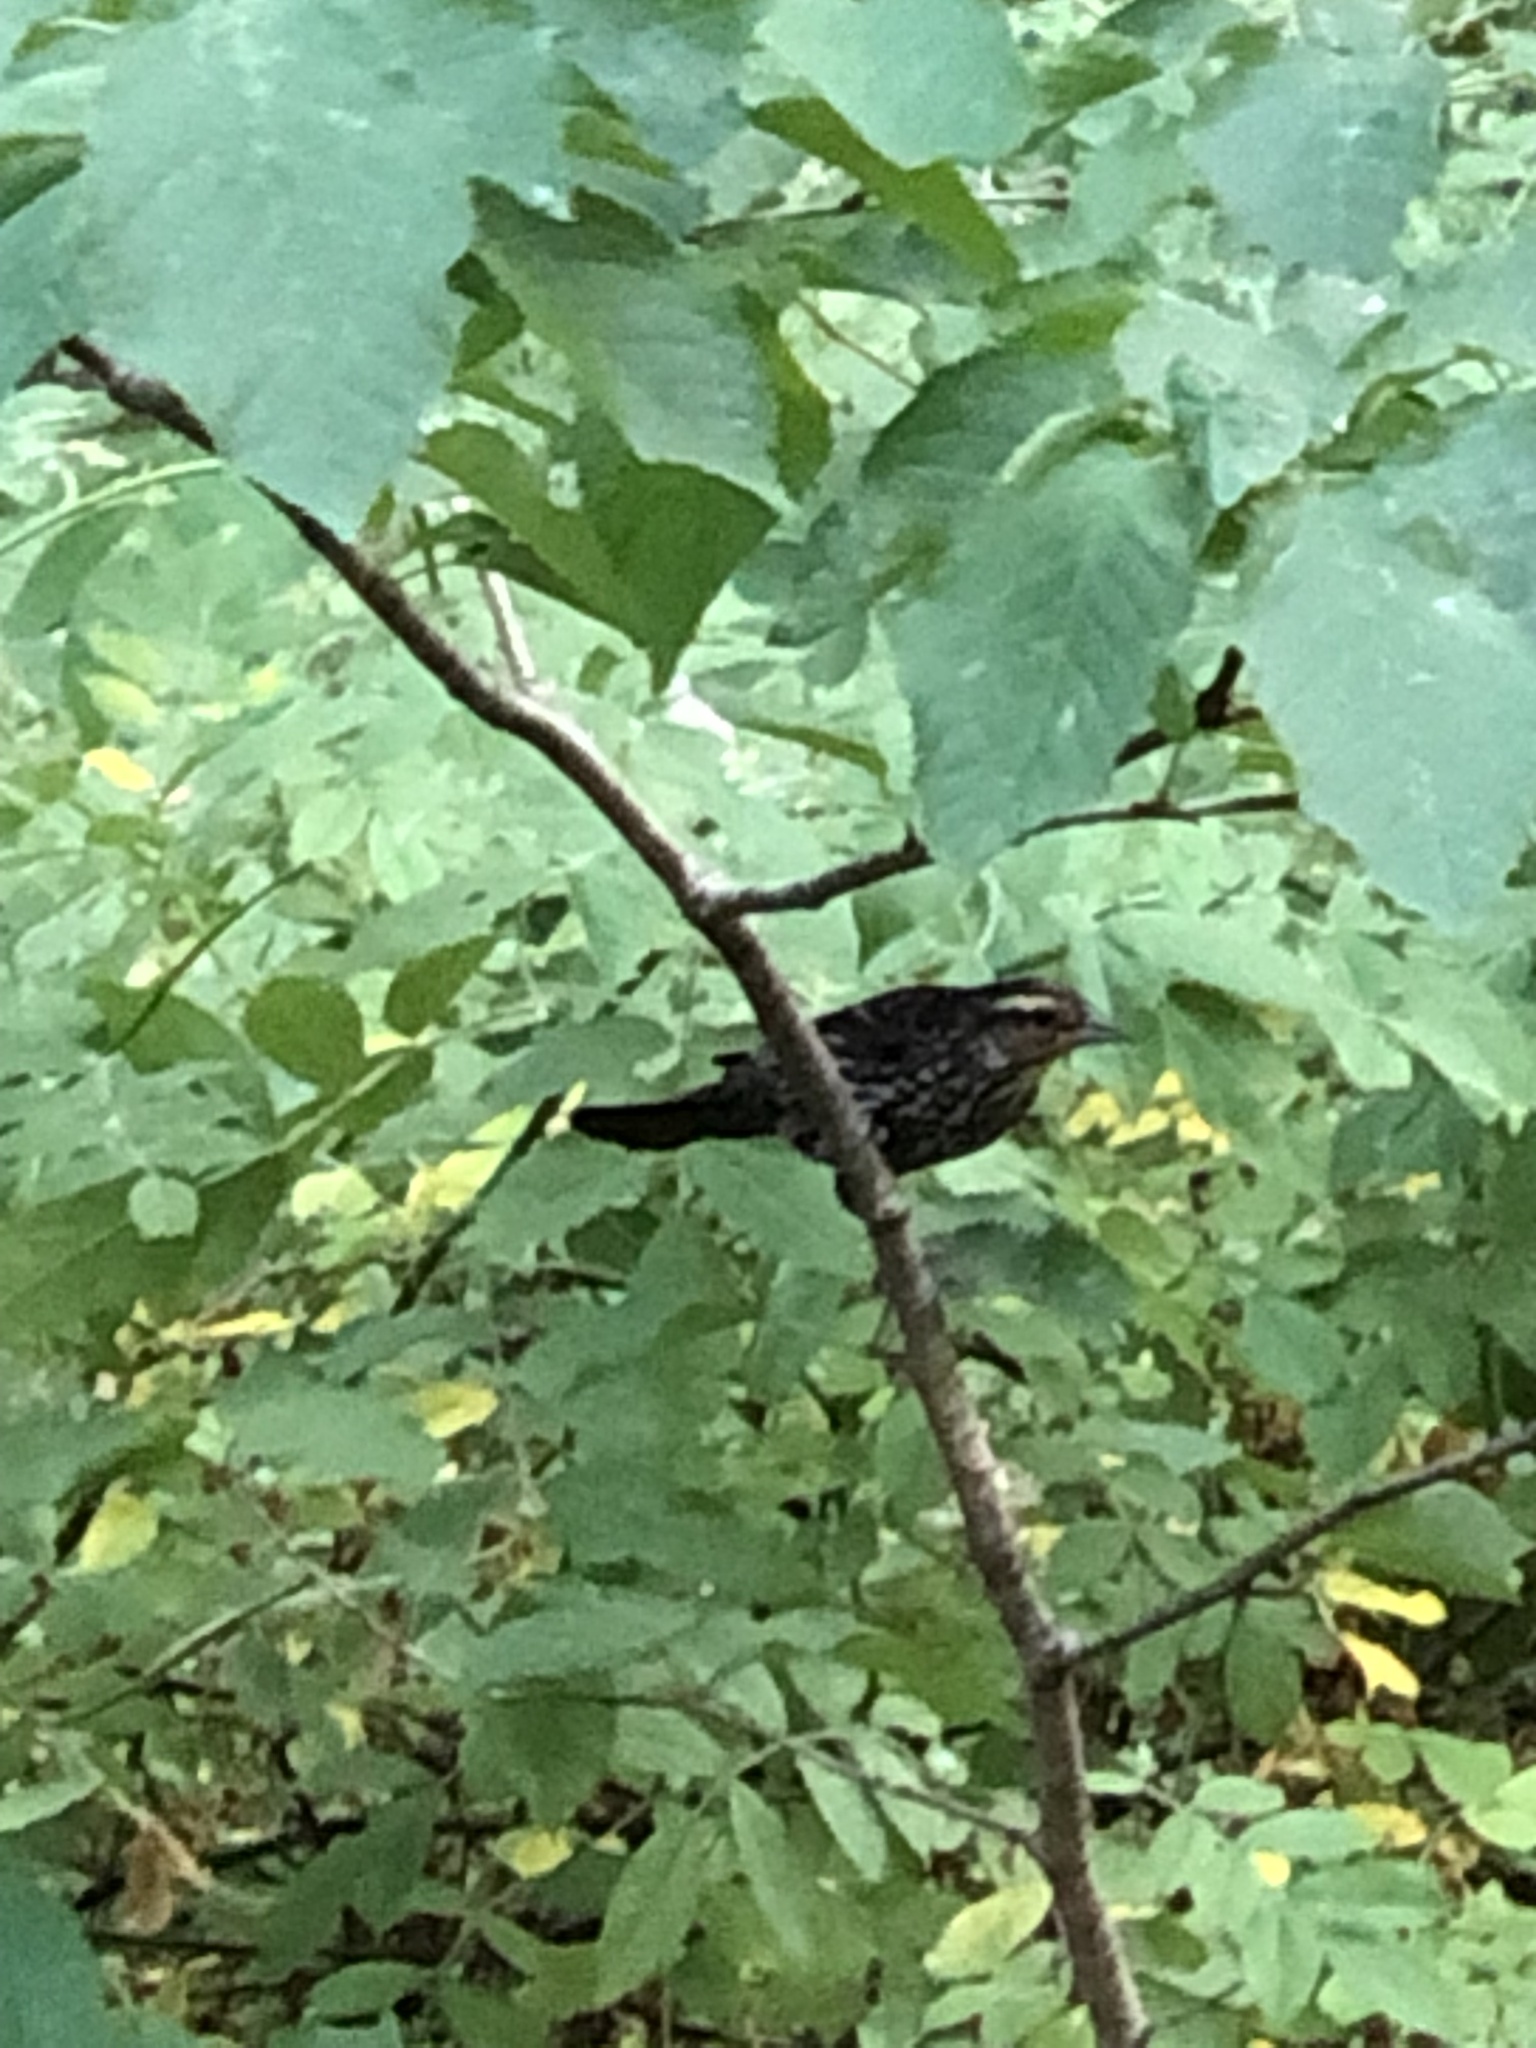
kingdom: Animalia
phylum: Chordata
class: Aves
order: Passeriformes
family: Icteridae
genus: Agelaius
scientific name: Agelaius phoeniceus
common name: Red-winged blackbird
